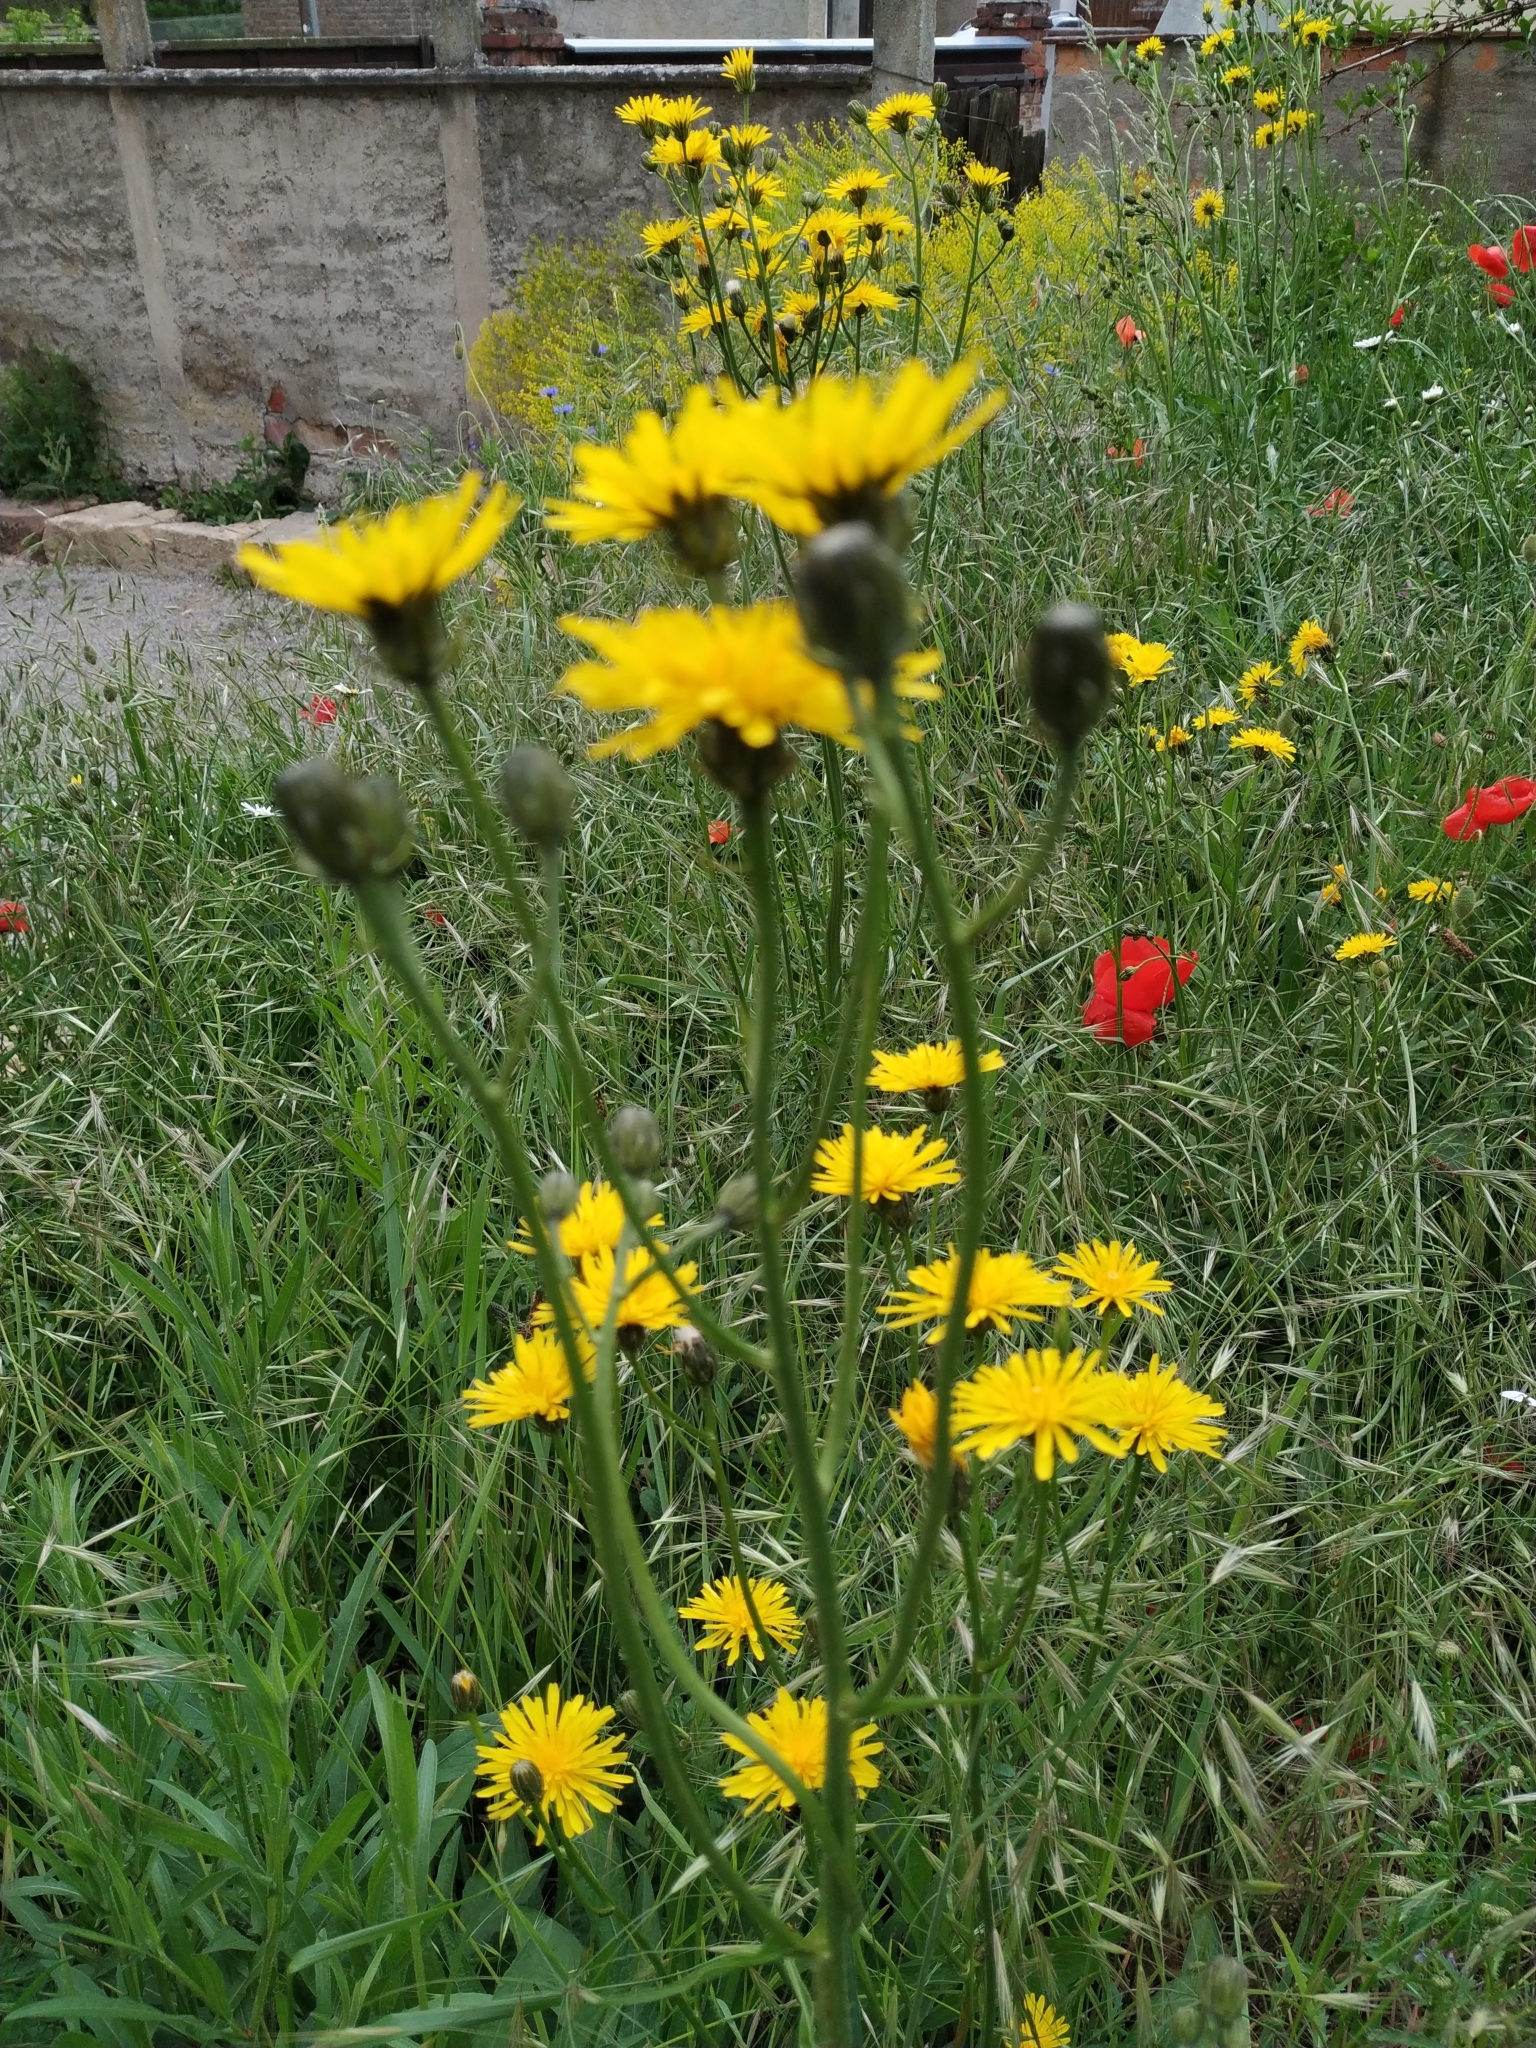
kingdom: Plantae
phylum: Tracheophyta
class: Magnoliopsida
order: Asterales
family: Asteraceae
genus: Crepis
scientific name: Crepis biennis
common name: Rough hawk's-beard
